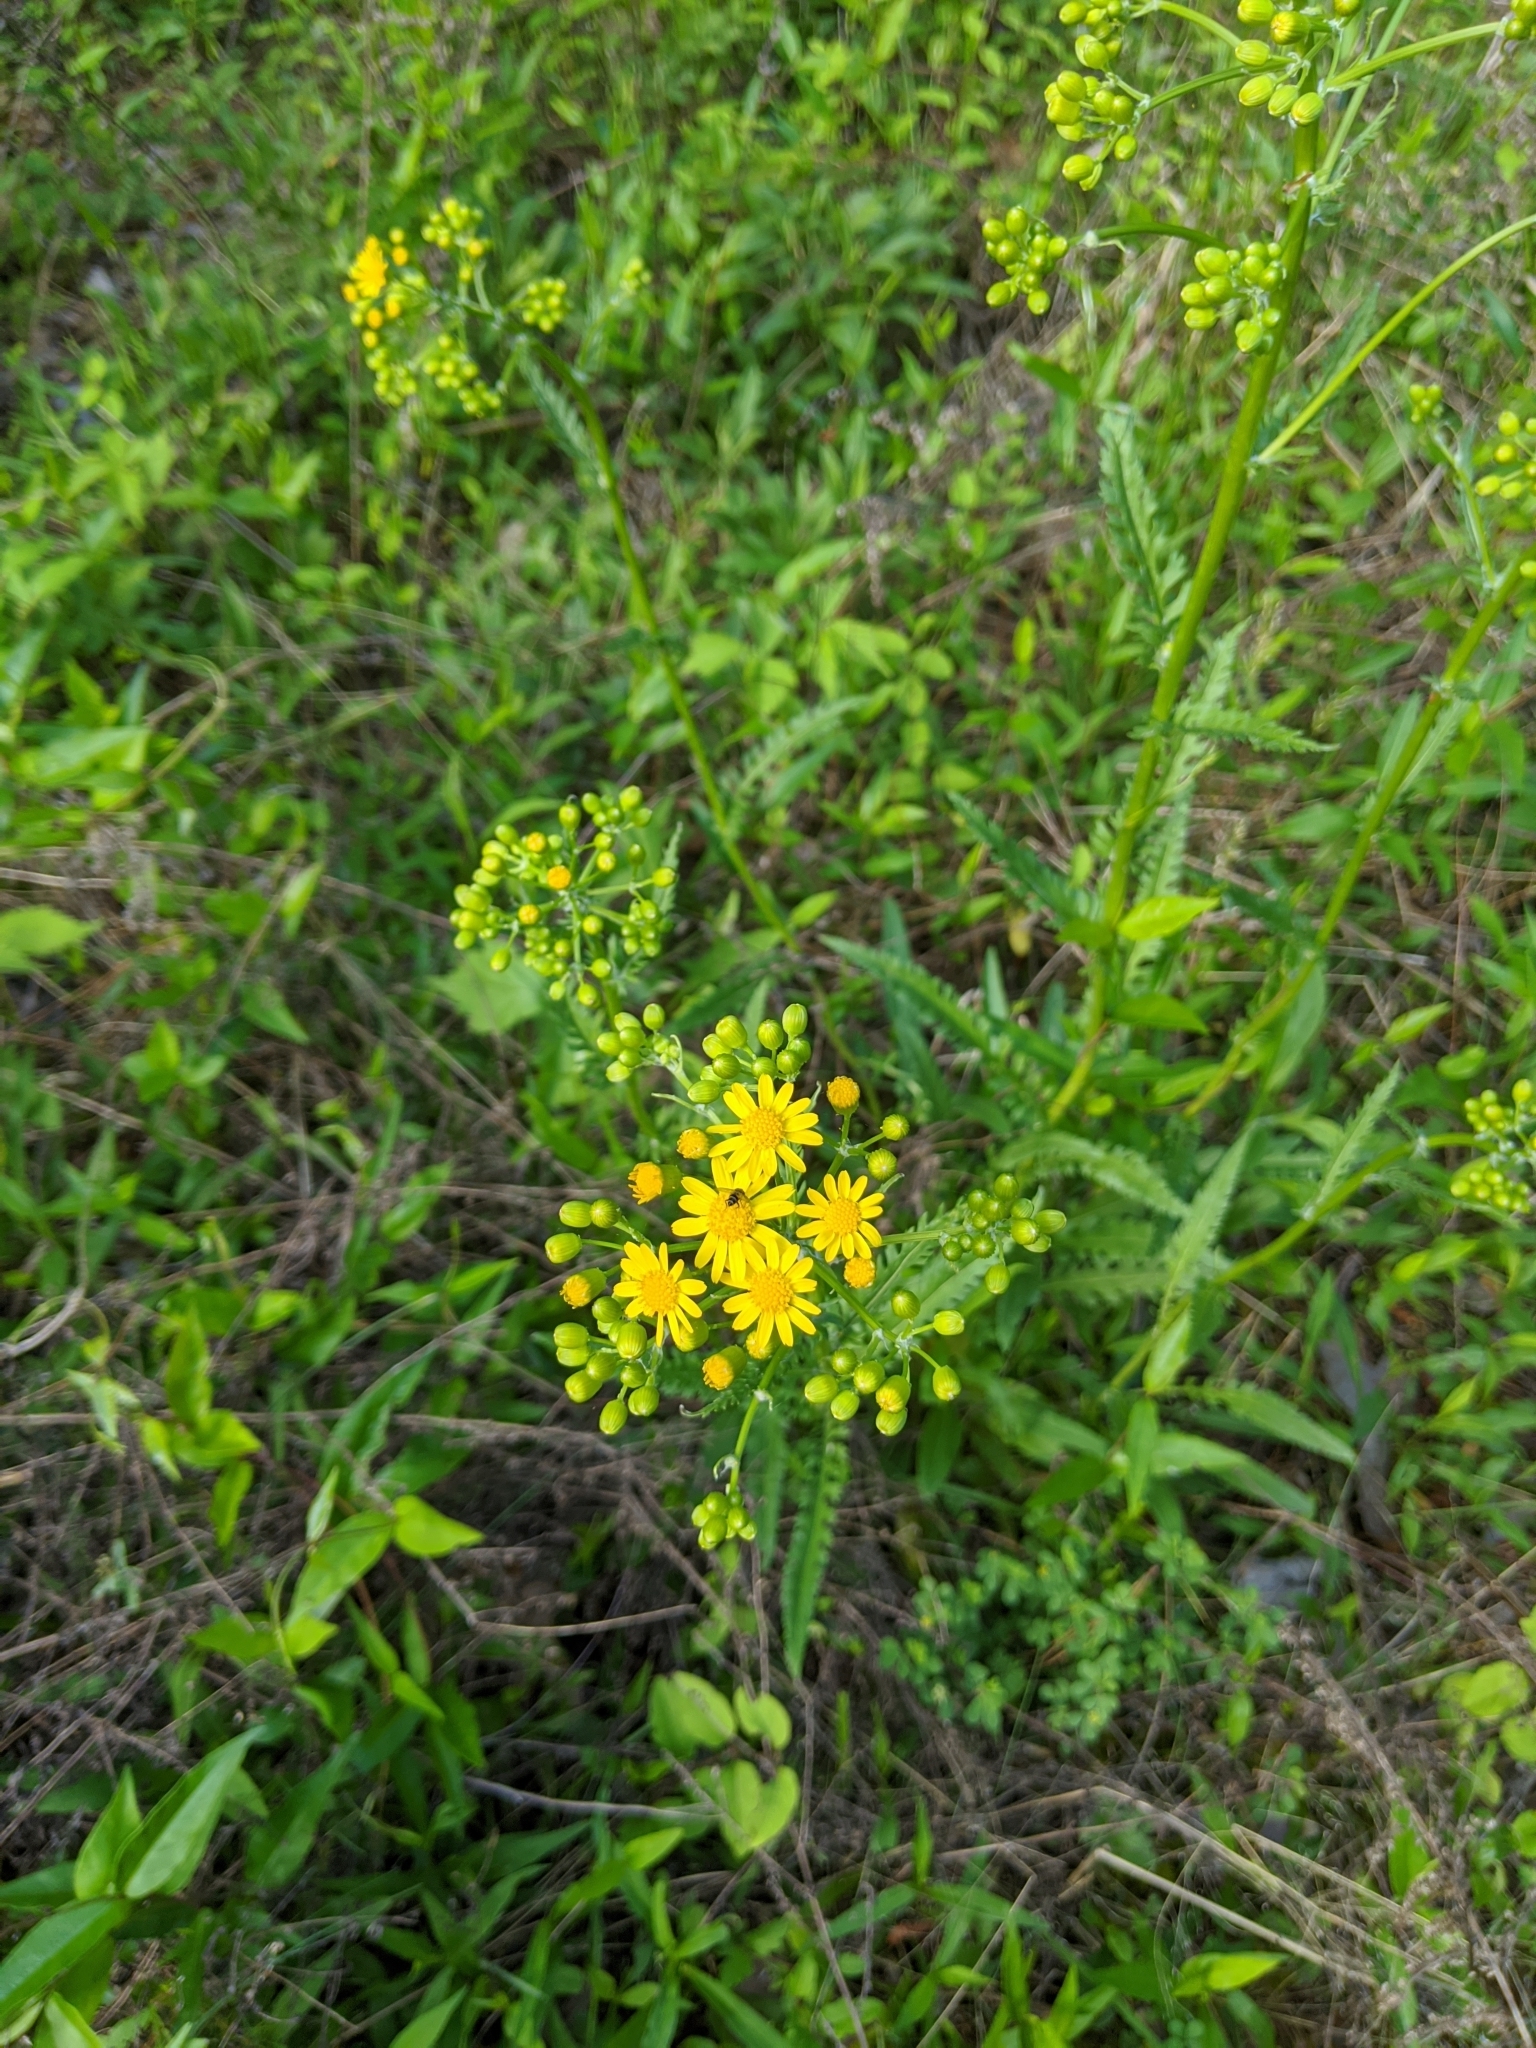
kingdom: Plantae
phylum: Tracheophyta
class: Magnoliopsida
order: Asterales
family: Asteraceae
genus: Packera
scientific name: Packera anonyma
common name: Small ragwort
